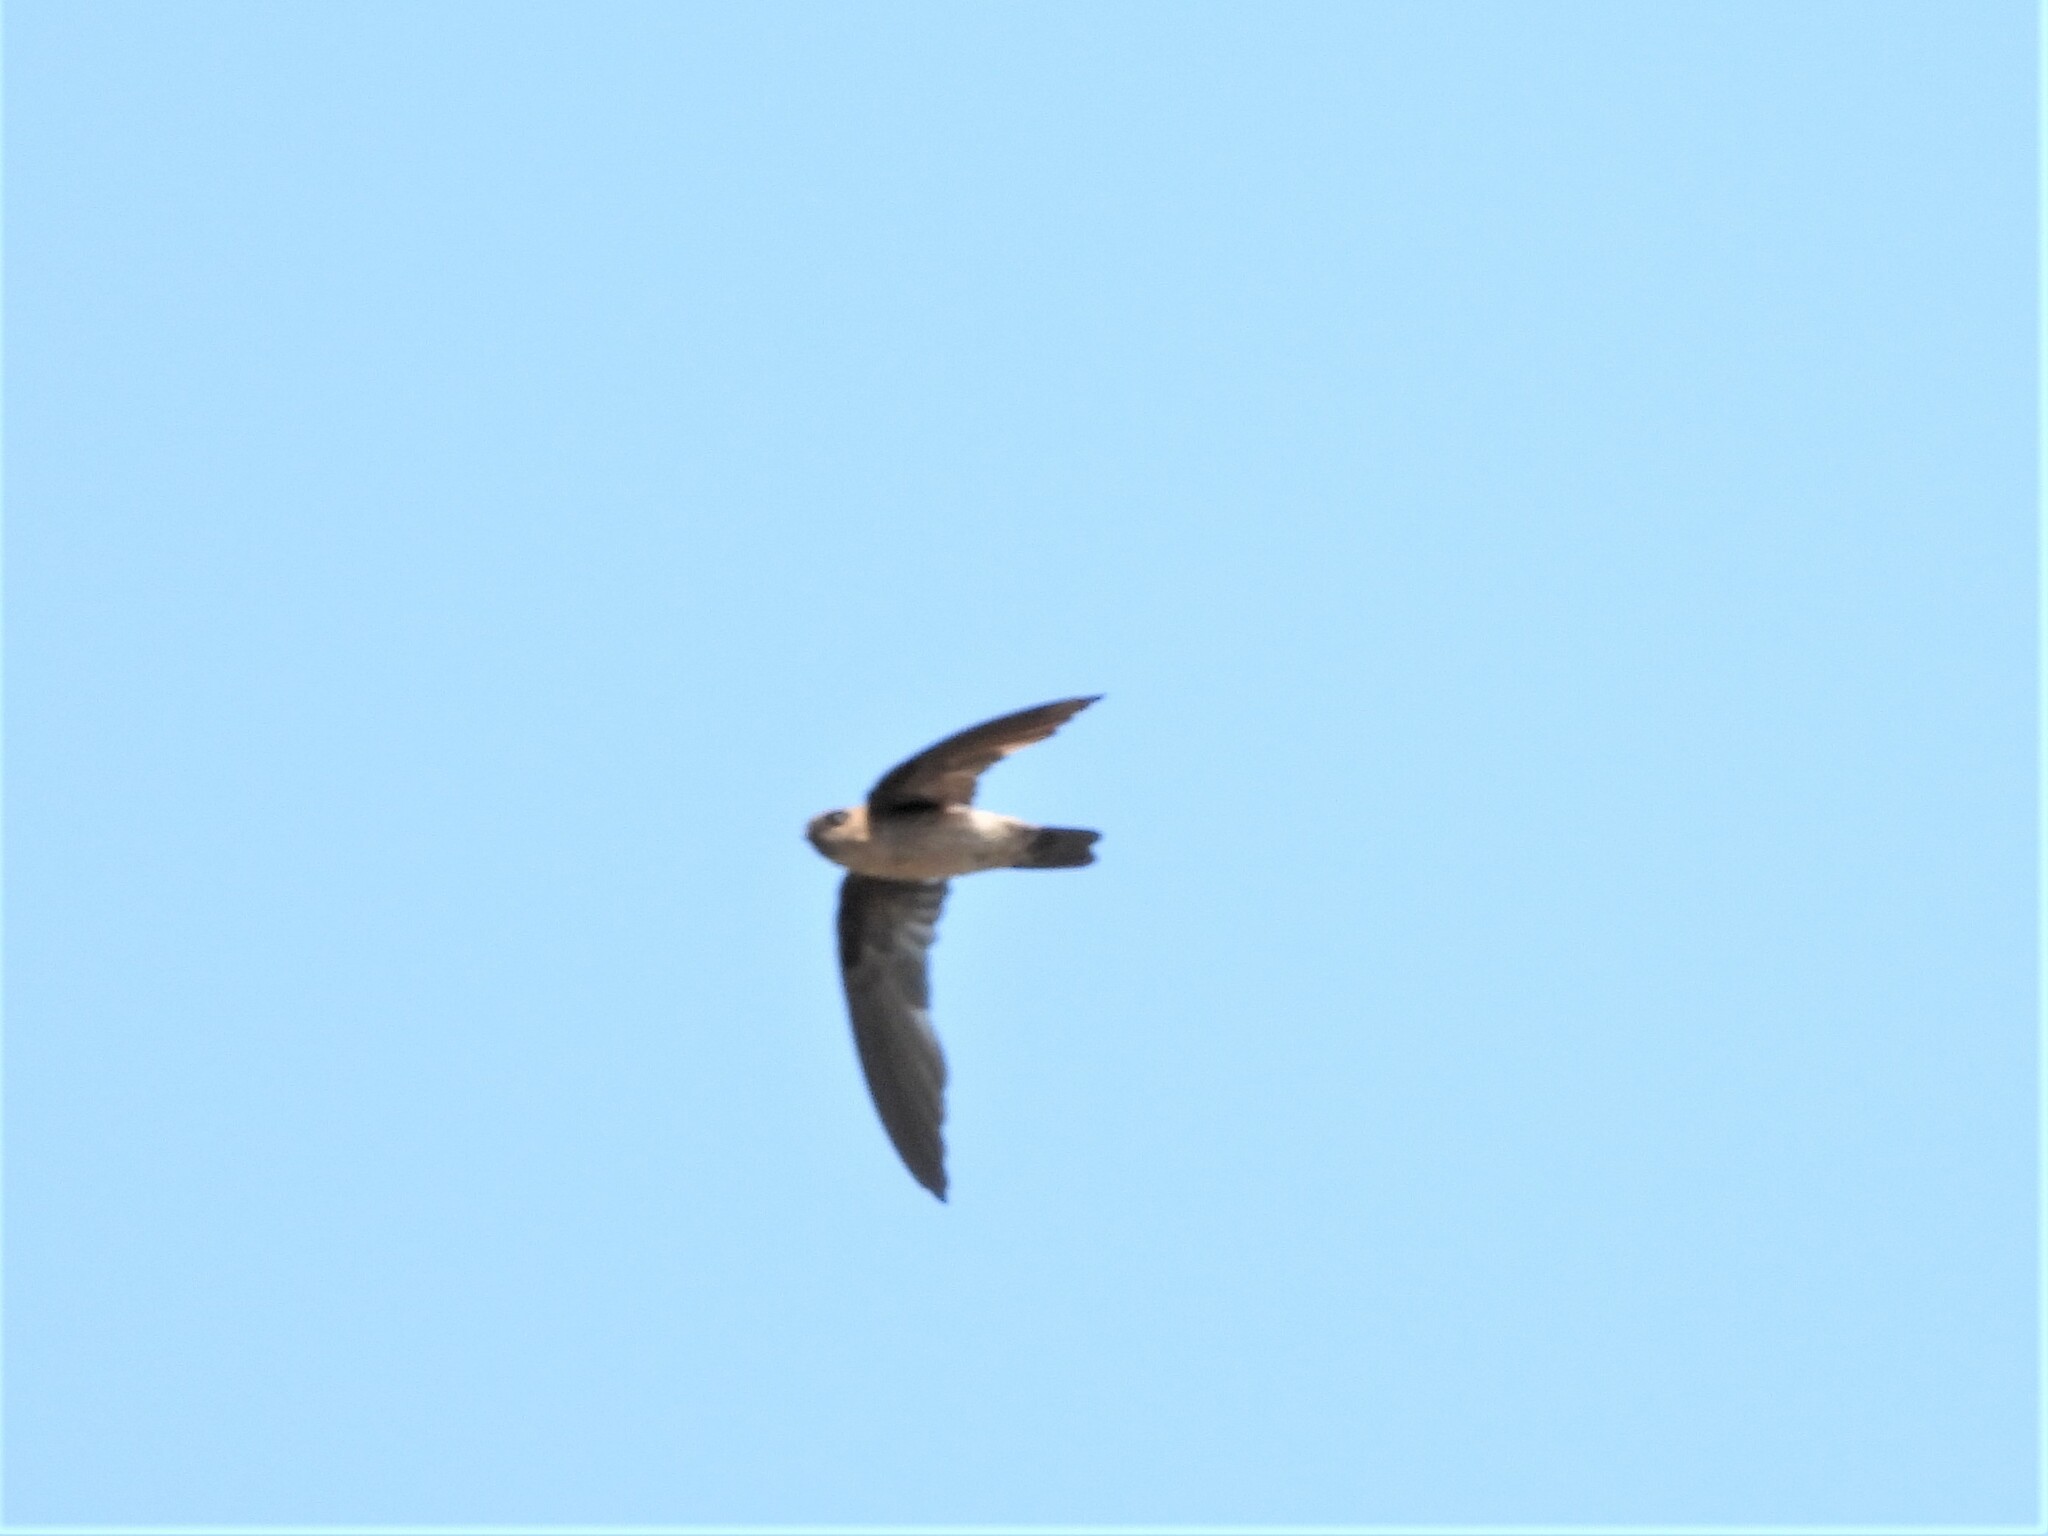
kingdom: Animalia
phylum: Chordata
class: Aves
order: Apodiformes
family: Apodidae
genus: Aerodramus
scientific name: Aerodramus
